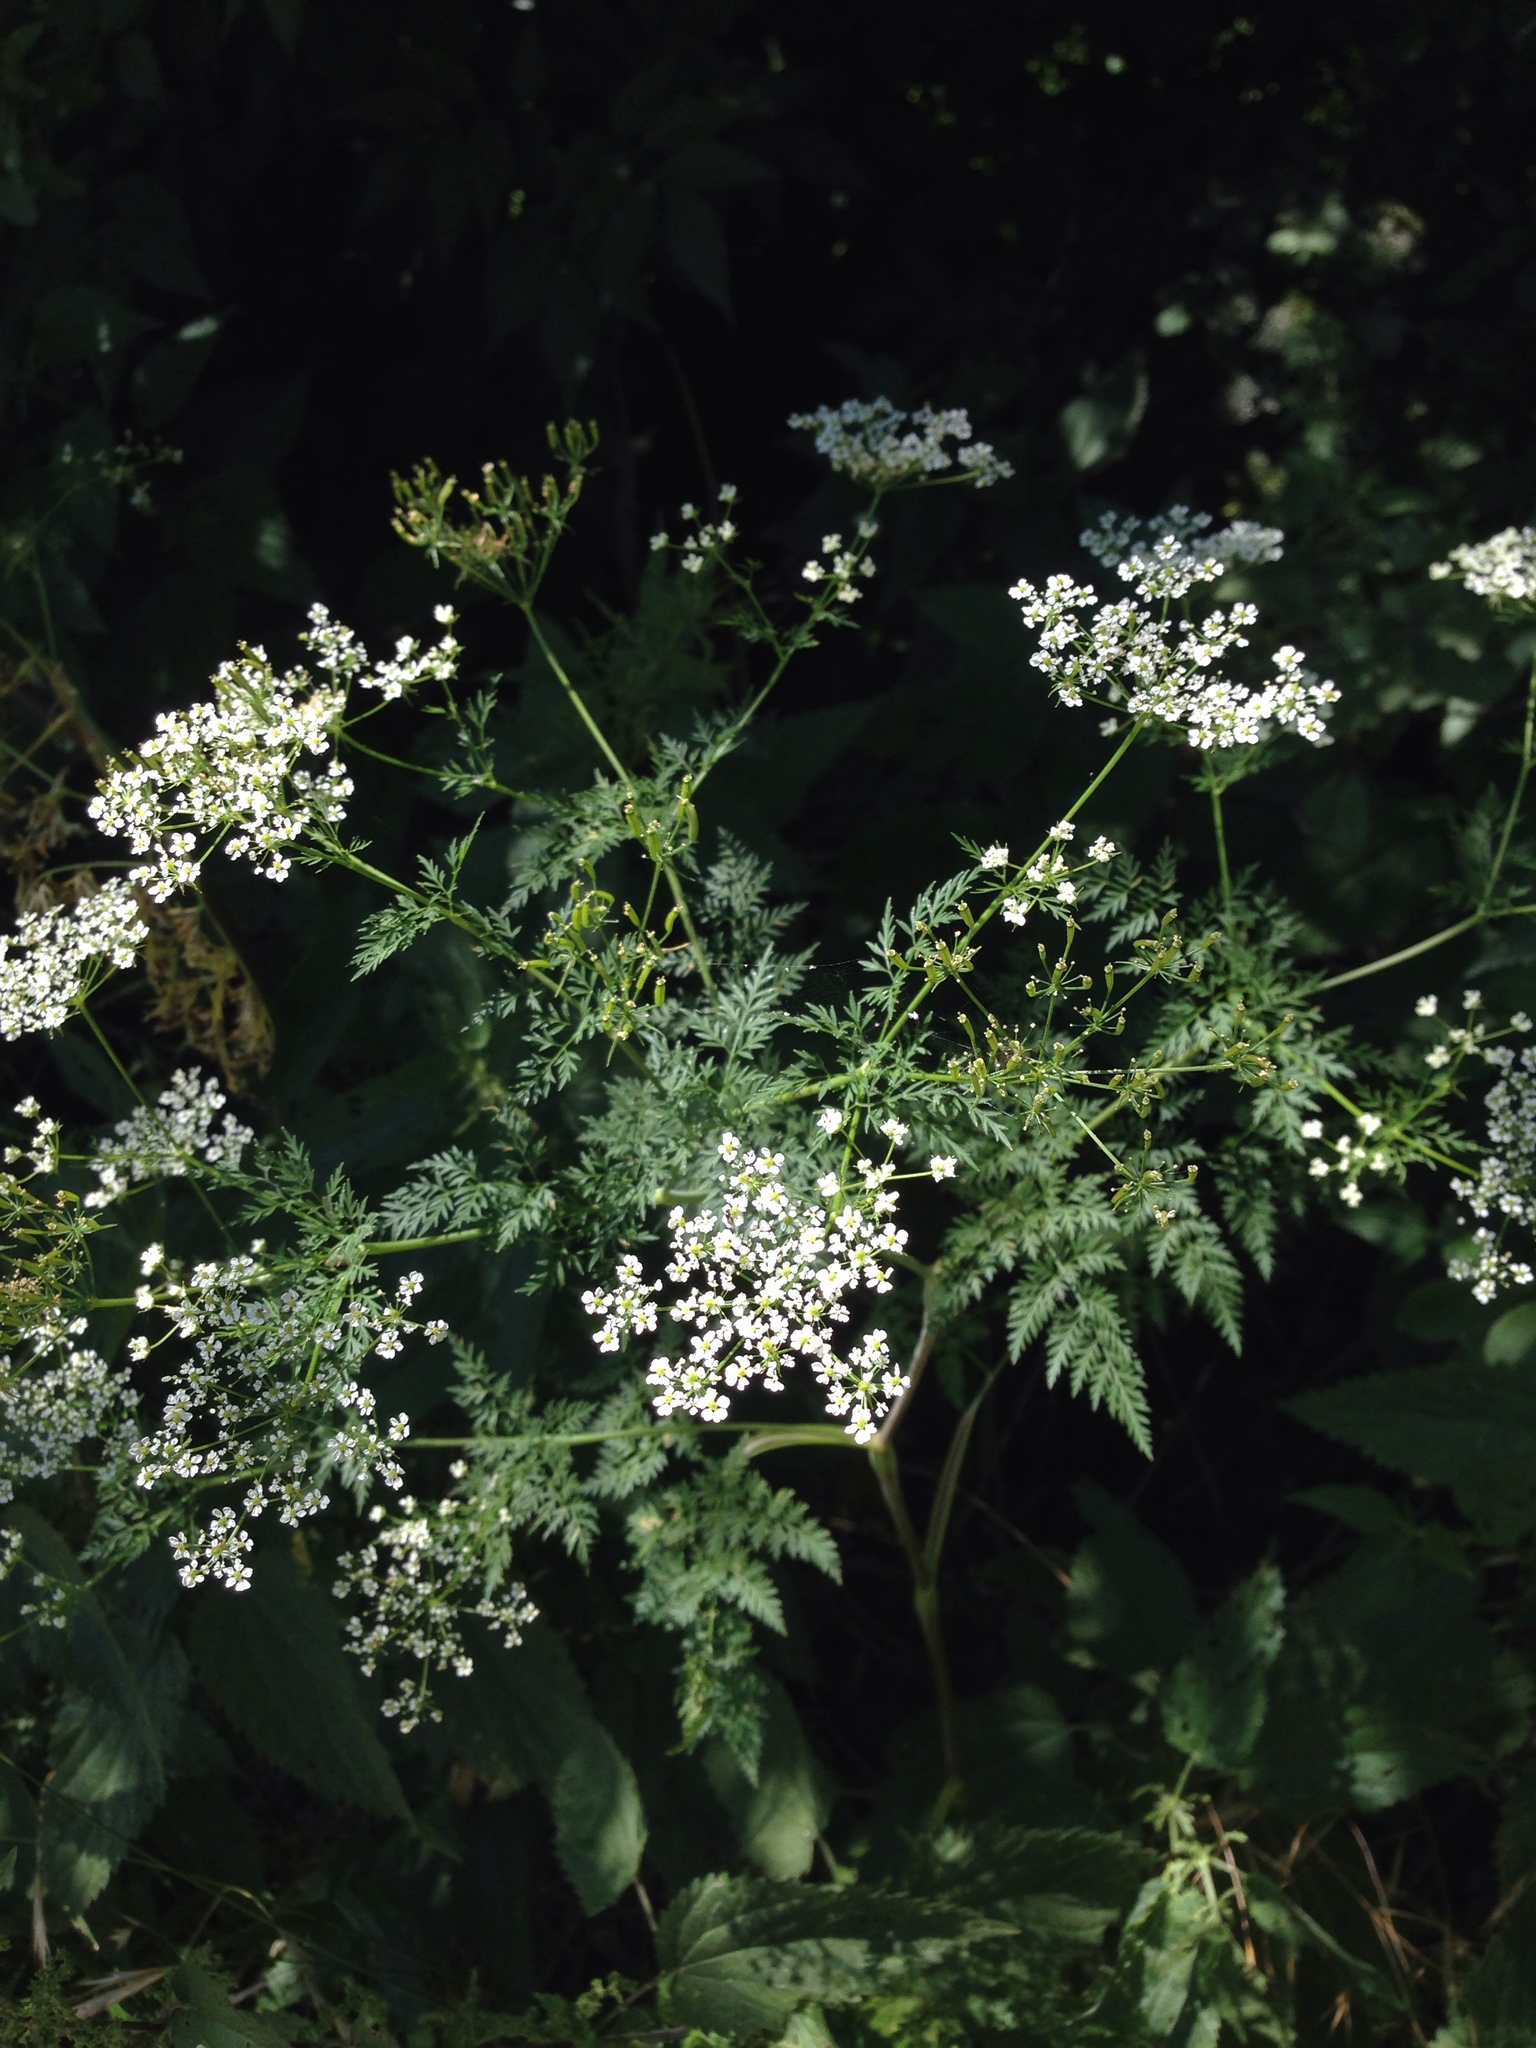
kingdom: Plantae
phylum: Tracheophyta
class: Magnoliopsida
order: Apiales
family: Apiaceae
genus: Anthriscus
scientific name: Anthriscus sylvestris
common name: Cow parsley
